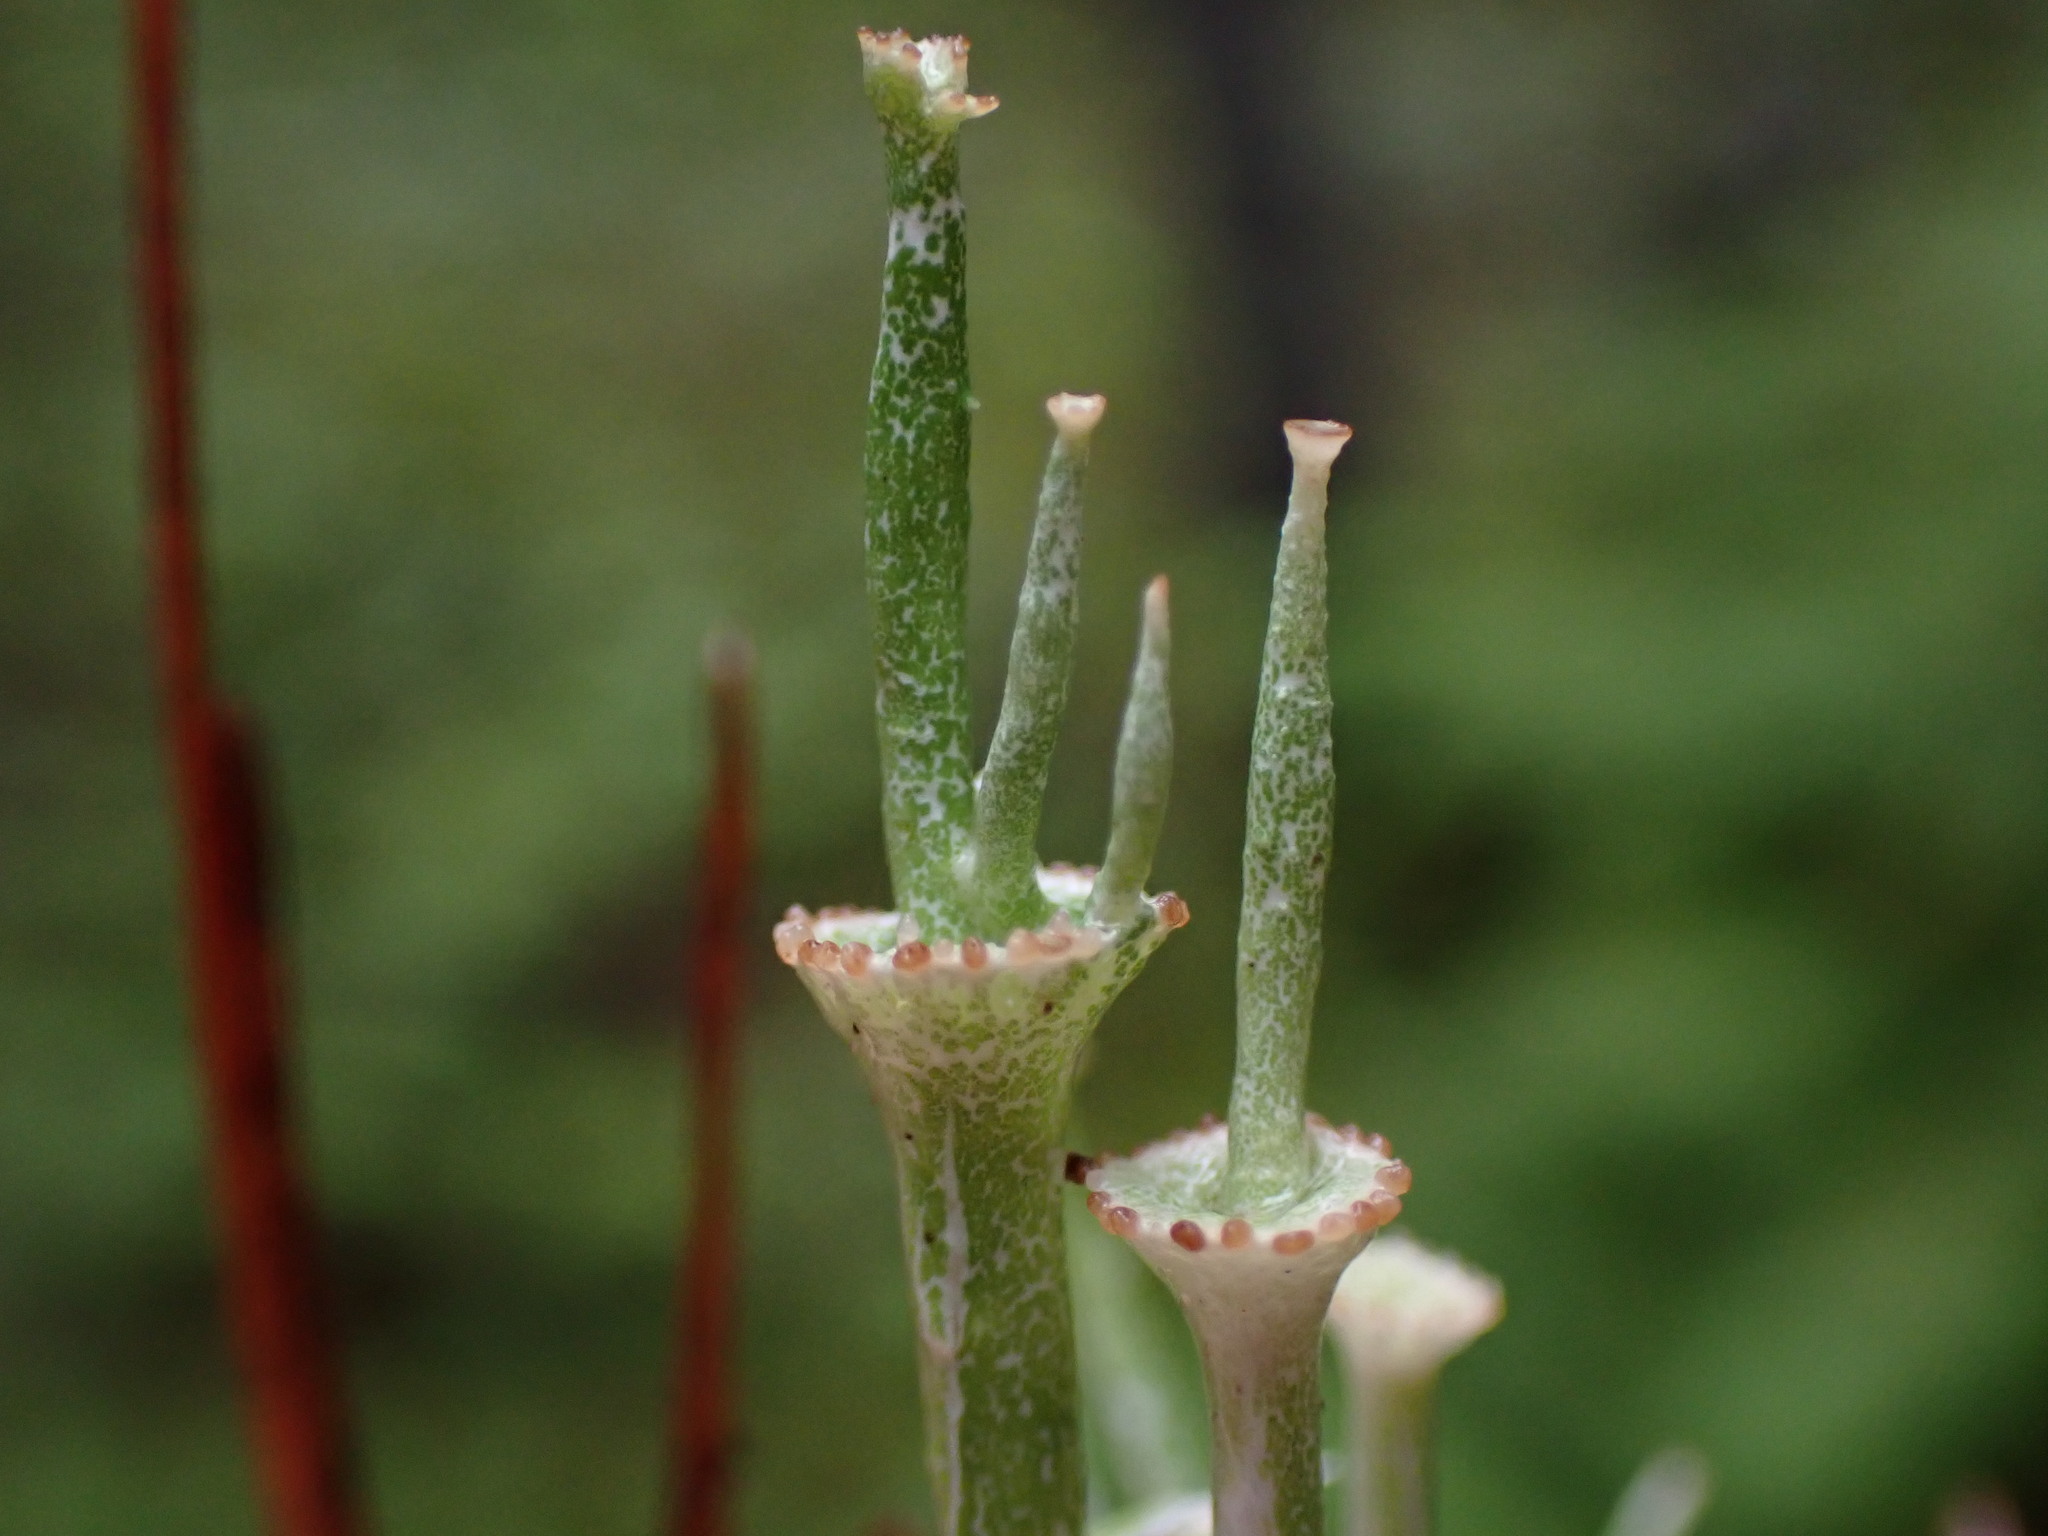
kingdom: Fungi
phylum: Ascomycota
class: Lecanoromycetes
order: Lecanorales
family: Cladoniaceae
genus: Cladonia
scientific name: Cladonia cervicornis
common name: Browned pixie-cup lichen
